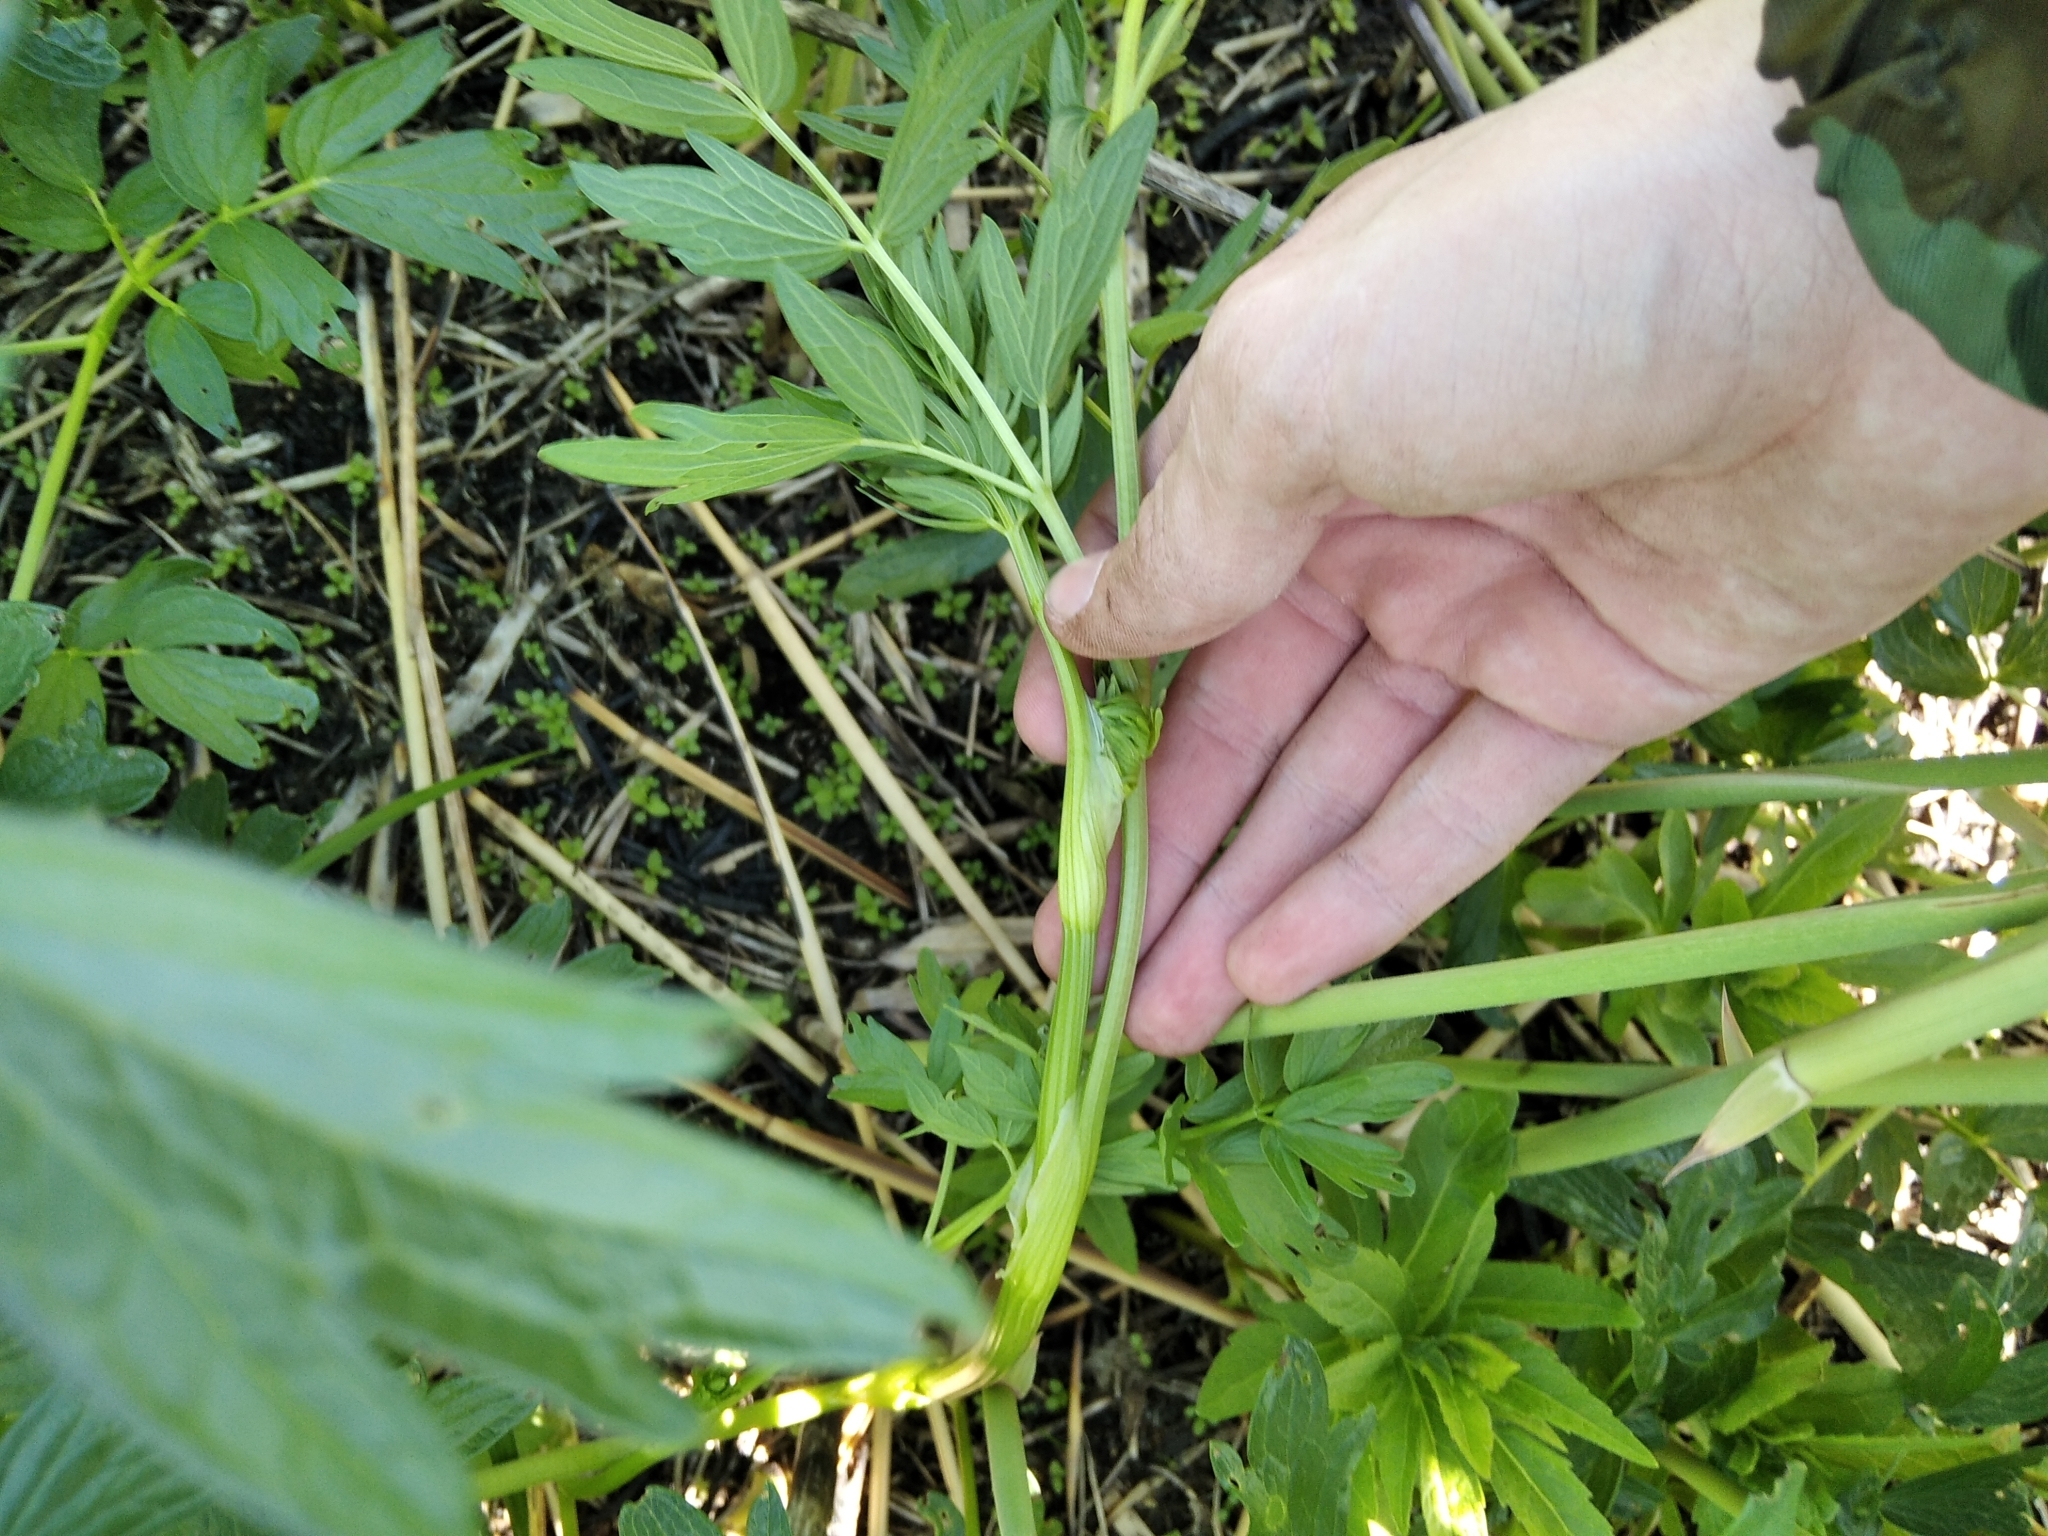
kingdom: Plantae
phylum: Tracheophyta
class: Magnoliopsida
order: Ranunculales
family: Ranunculaceae
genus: Thalictrum
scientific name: Thalictrum flavum
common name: Common meadow-rue
